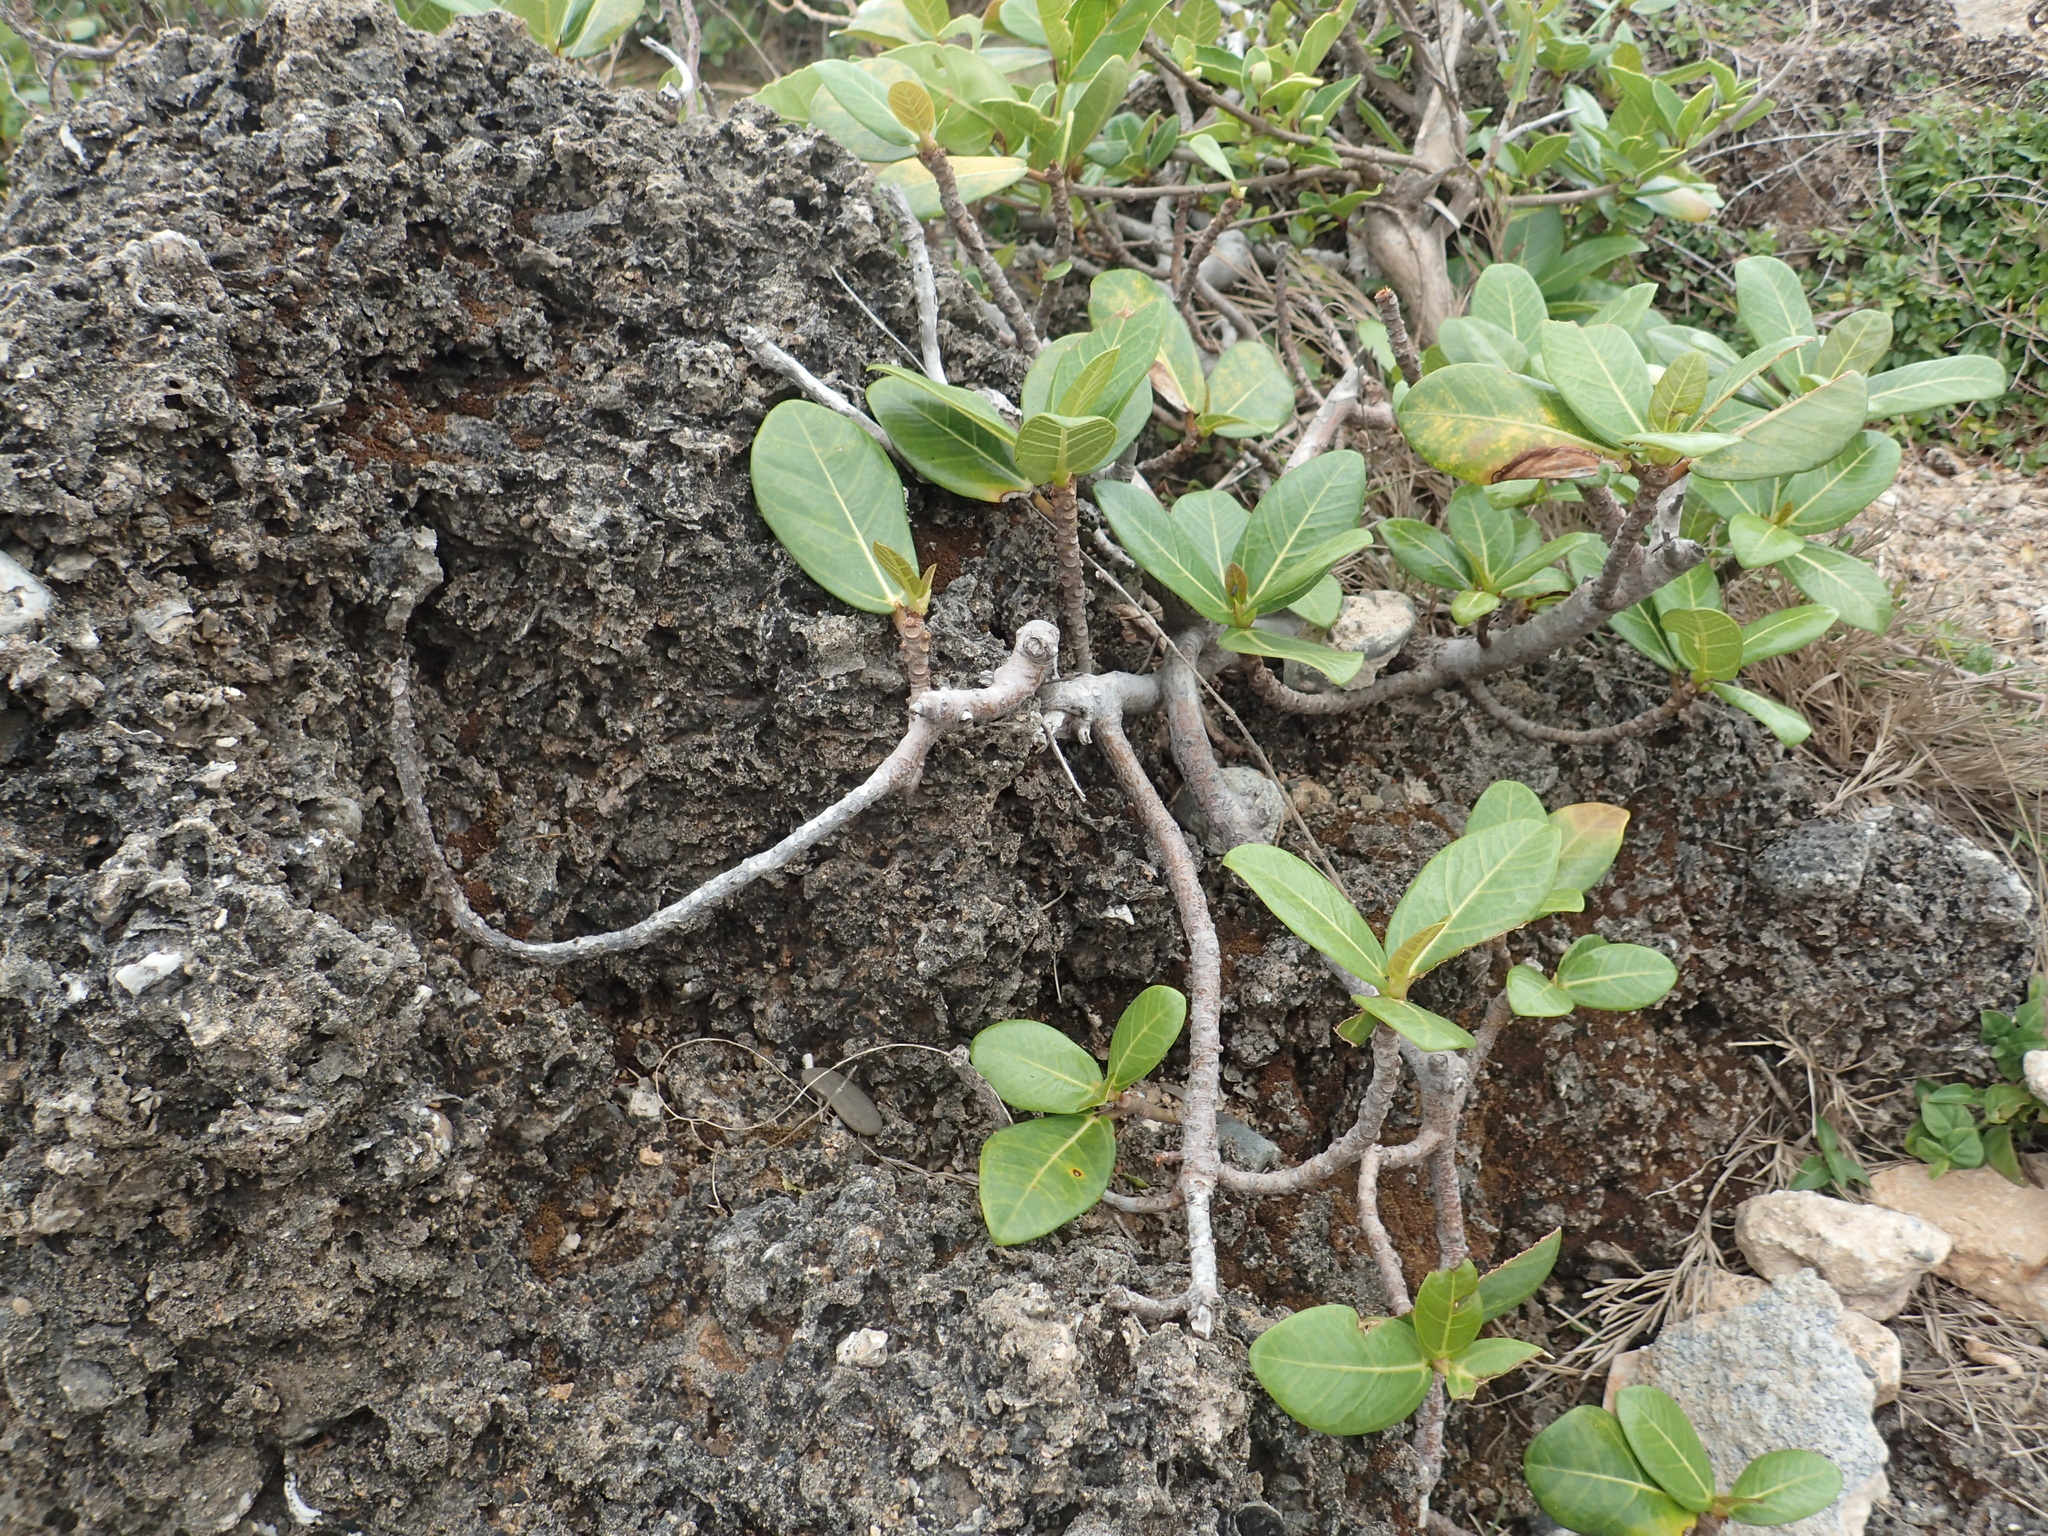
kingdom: Plantae
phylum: Tracheophyta
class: Magnoliopsida
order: Rosales
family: Moraceae
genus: Ficus
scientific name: Ficus pedunculosa
